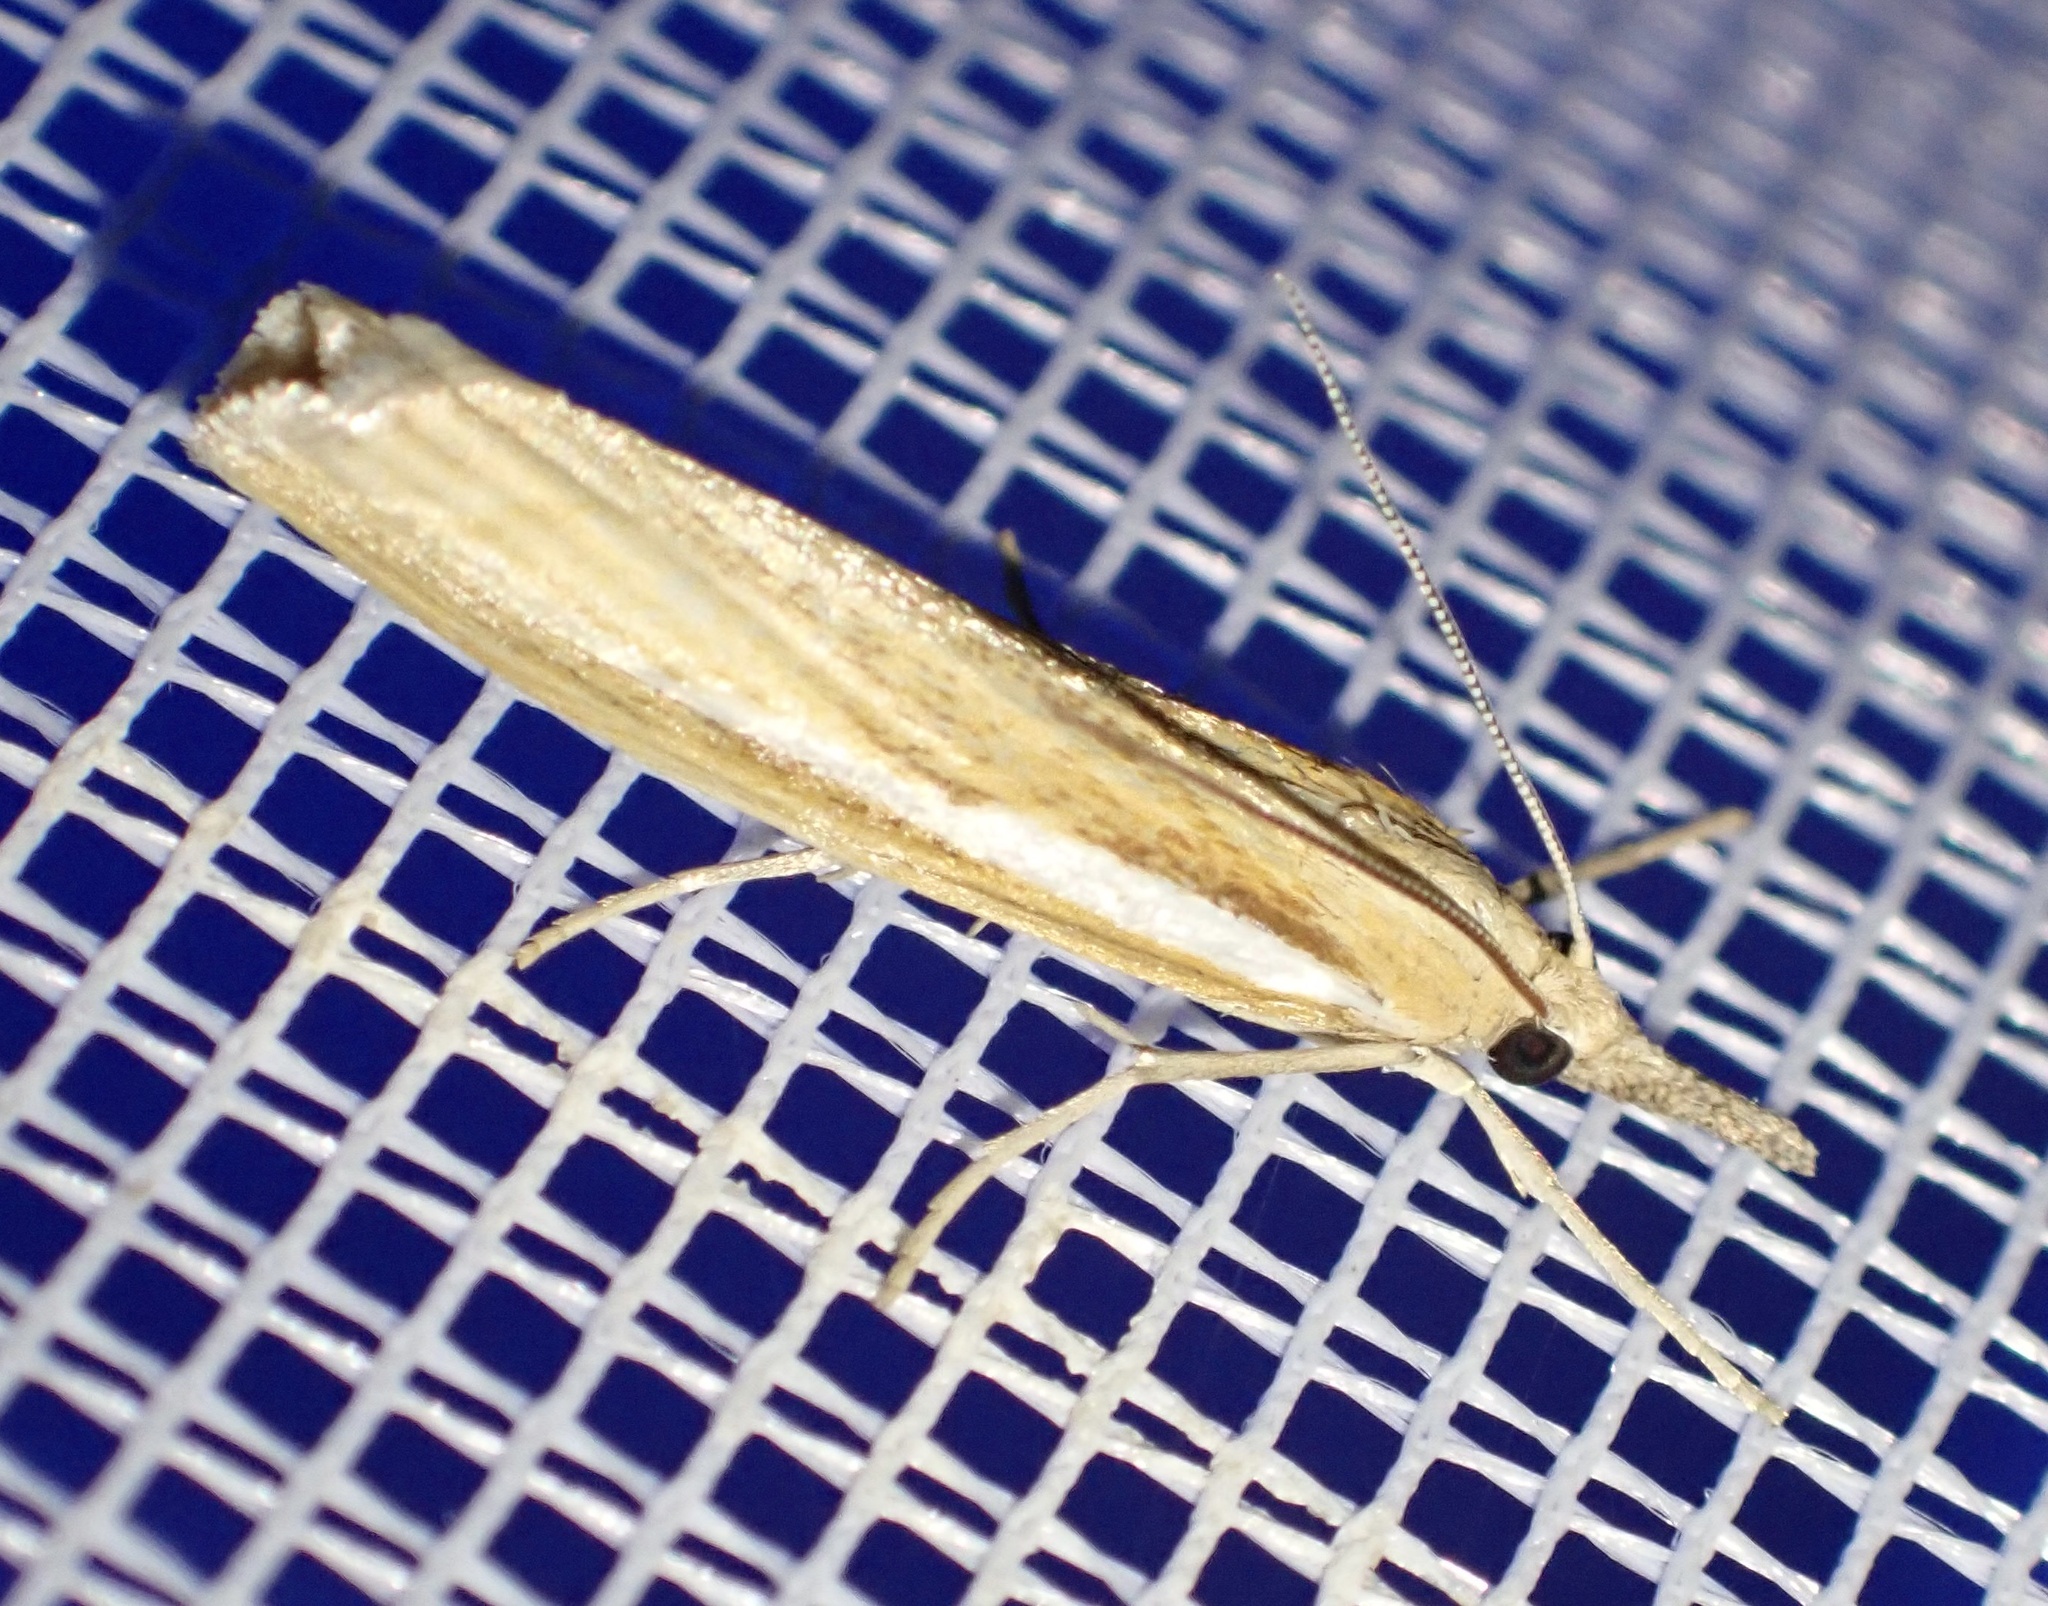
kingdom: Animalia
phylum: Arthropoda
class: Insecta
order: Lepidoptera
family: Crambidae
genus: Agriphila
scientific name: Agriphila tristellus
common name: Common grass-veneer
